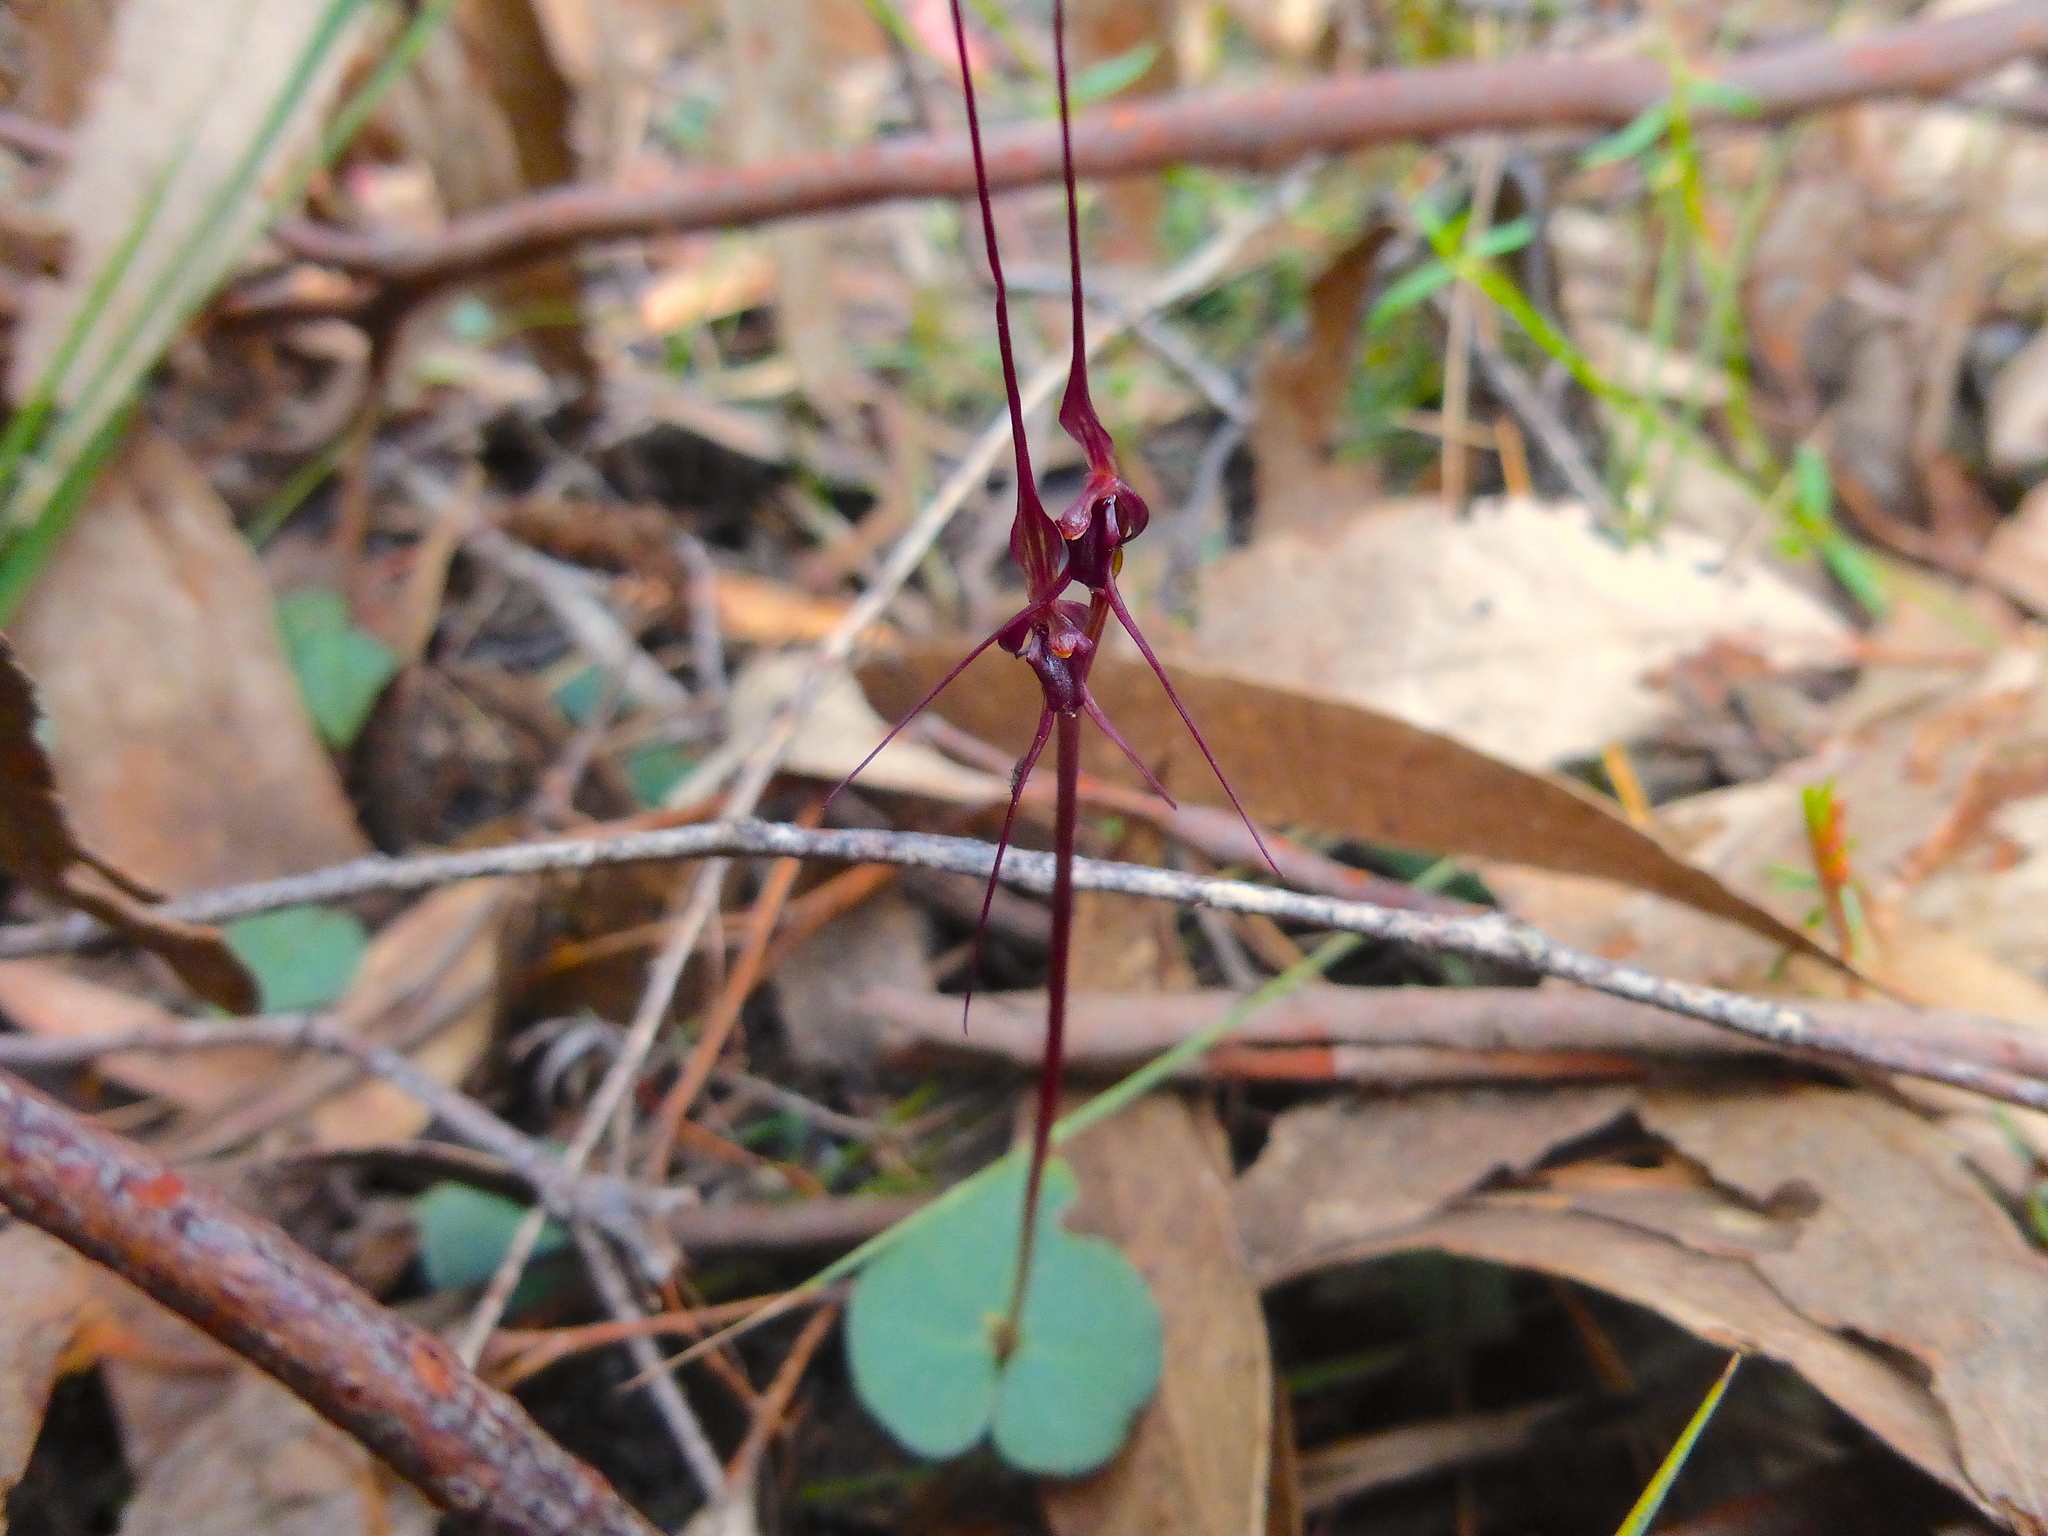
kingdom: Plantae
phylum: Tracheophyta
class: Liliopsida
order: Asparagales
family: Orchidaceae
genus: Acianthus
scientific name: Acianthus caudatus
